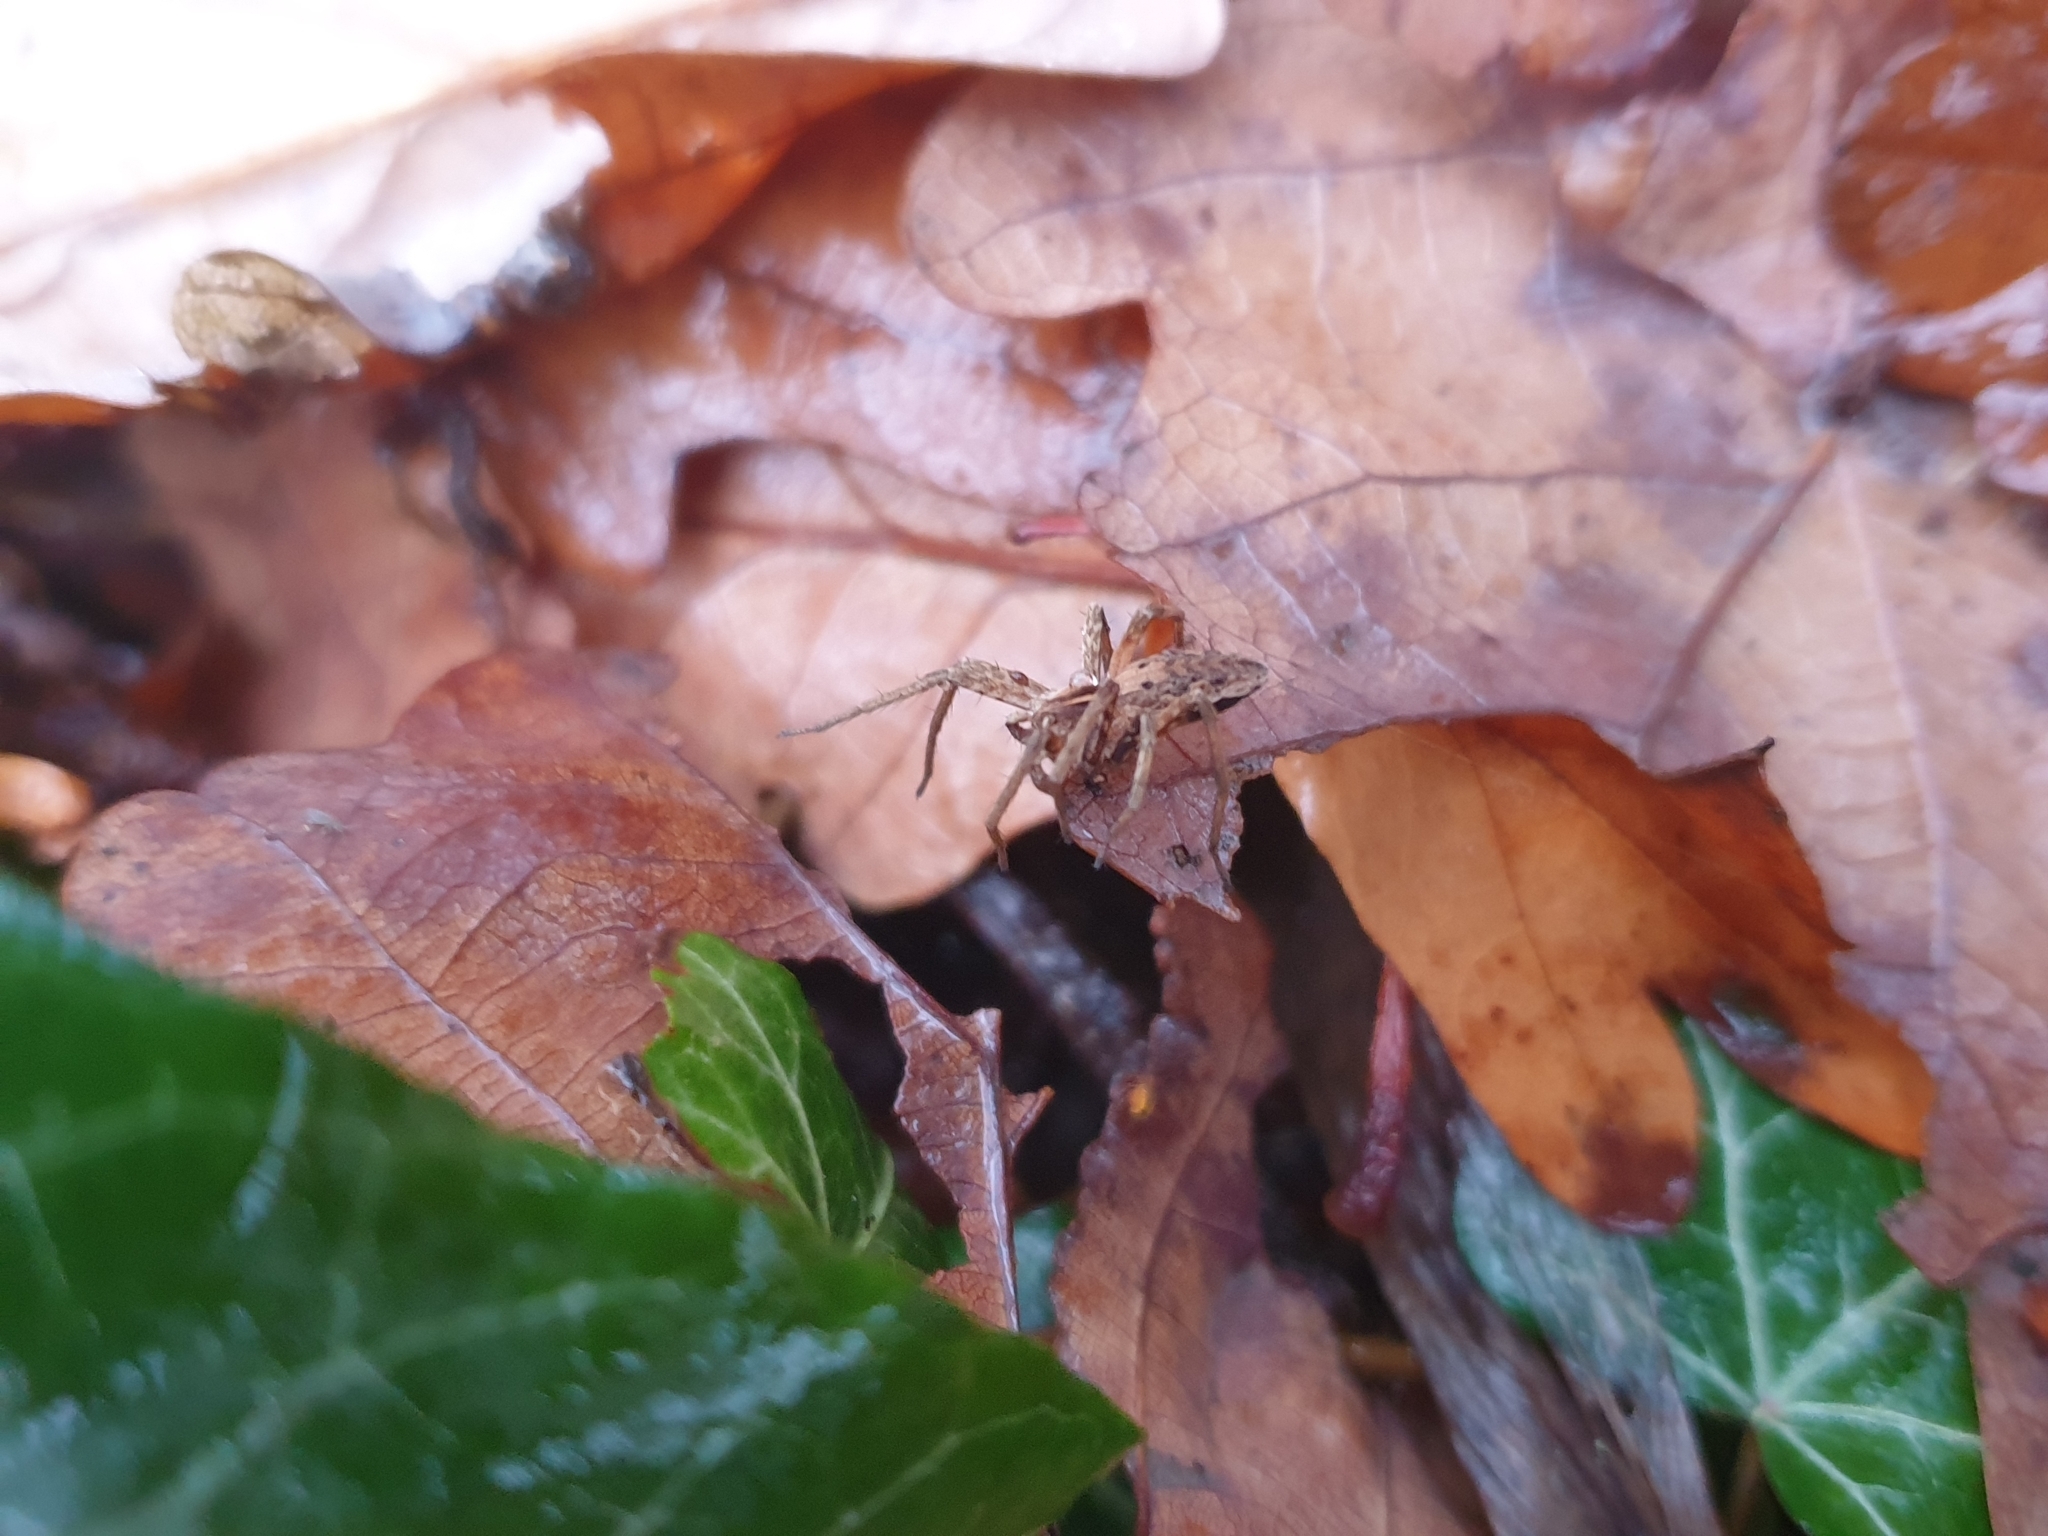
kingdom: Animalia
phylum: Arthropoda
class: Arachnida
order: Araneae
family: Pisauridae
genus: Pisaura
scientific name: Pisaura mirabilis
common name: Tent spider
